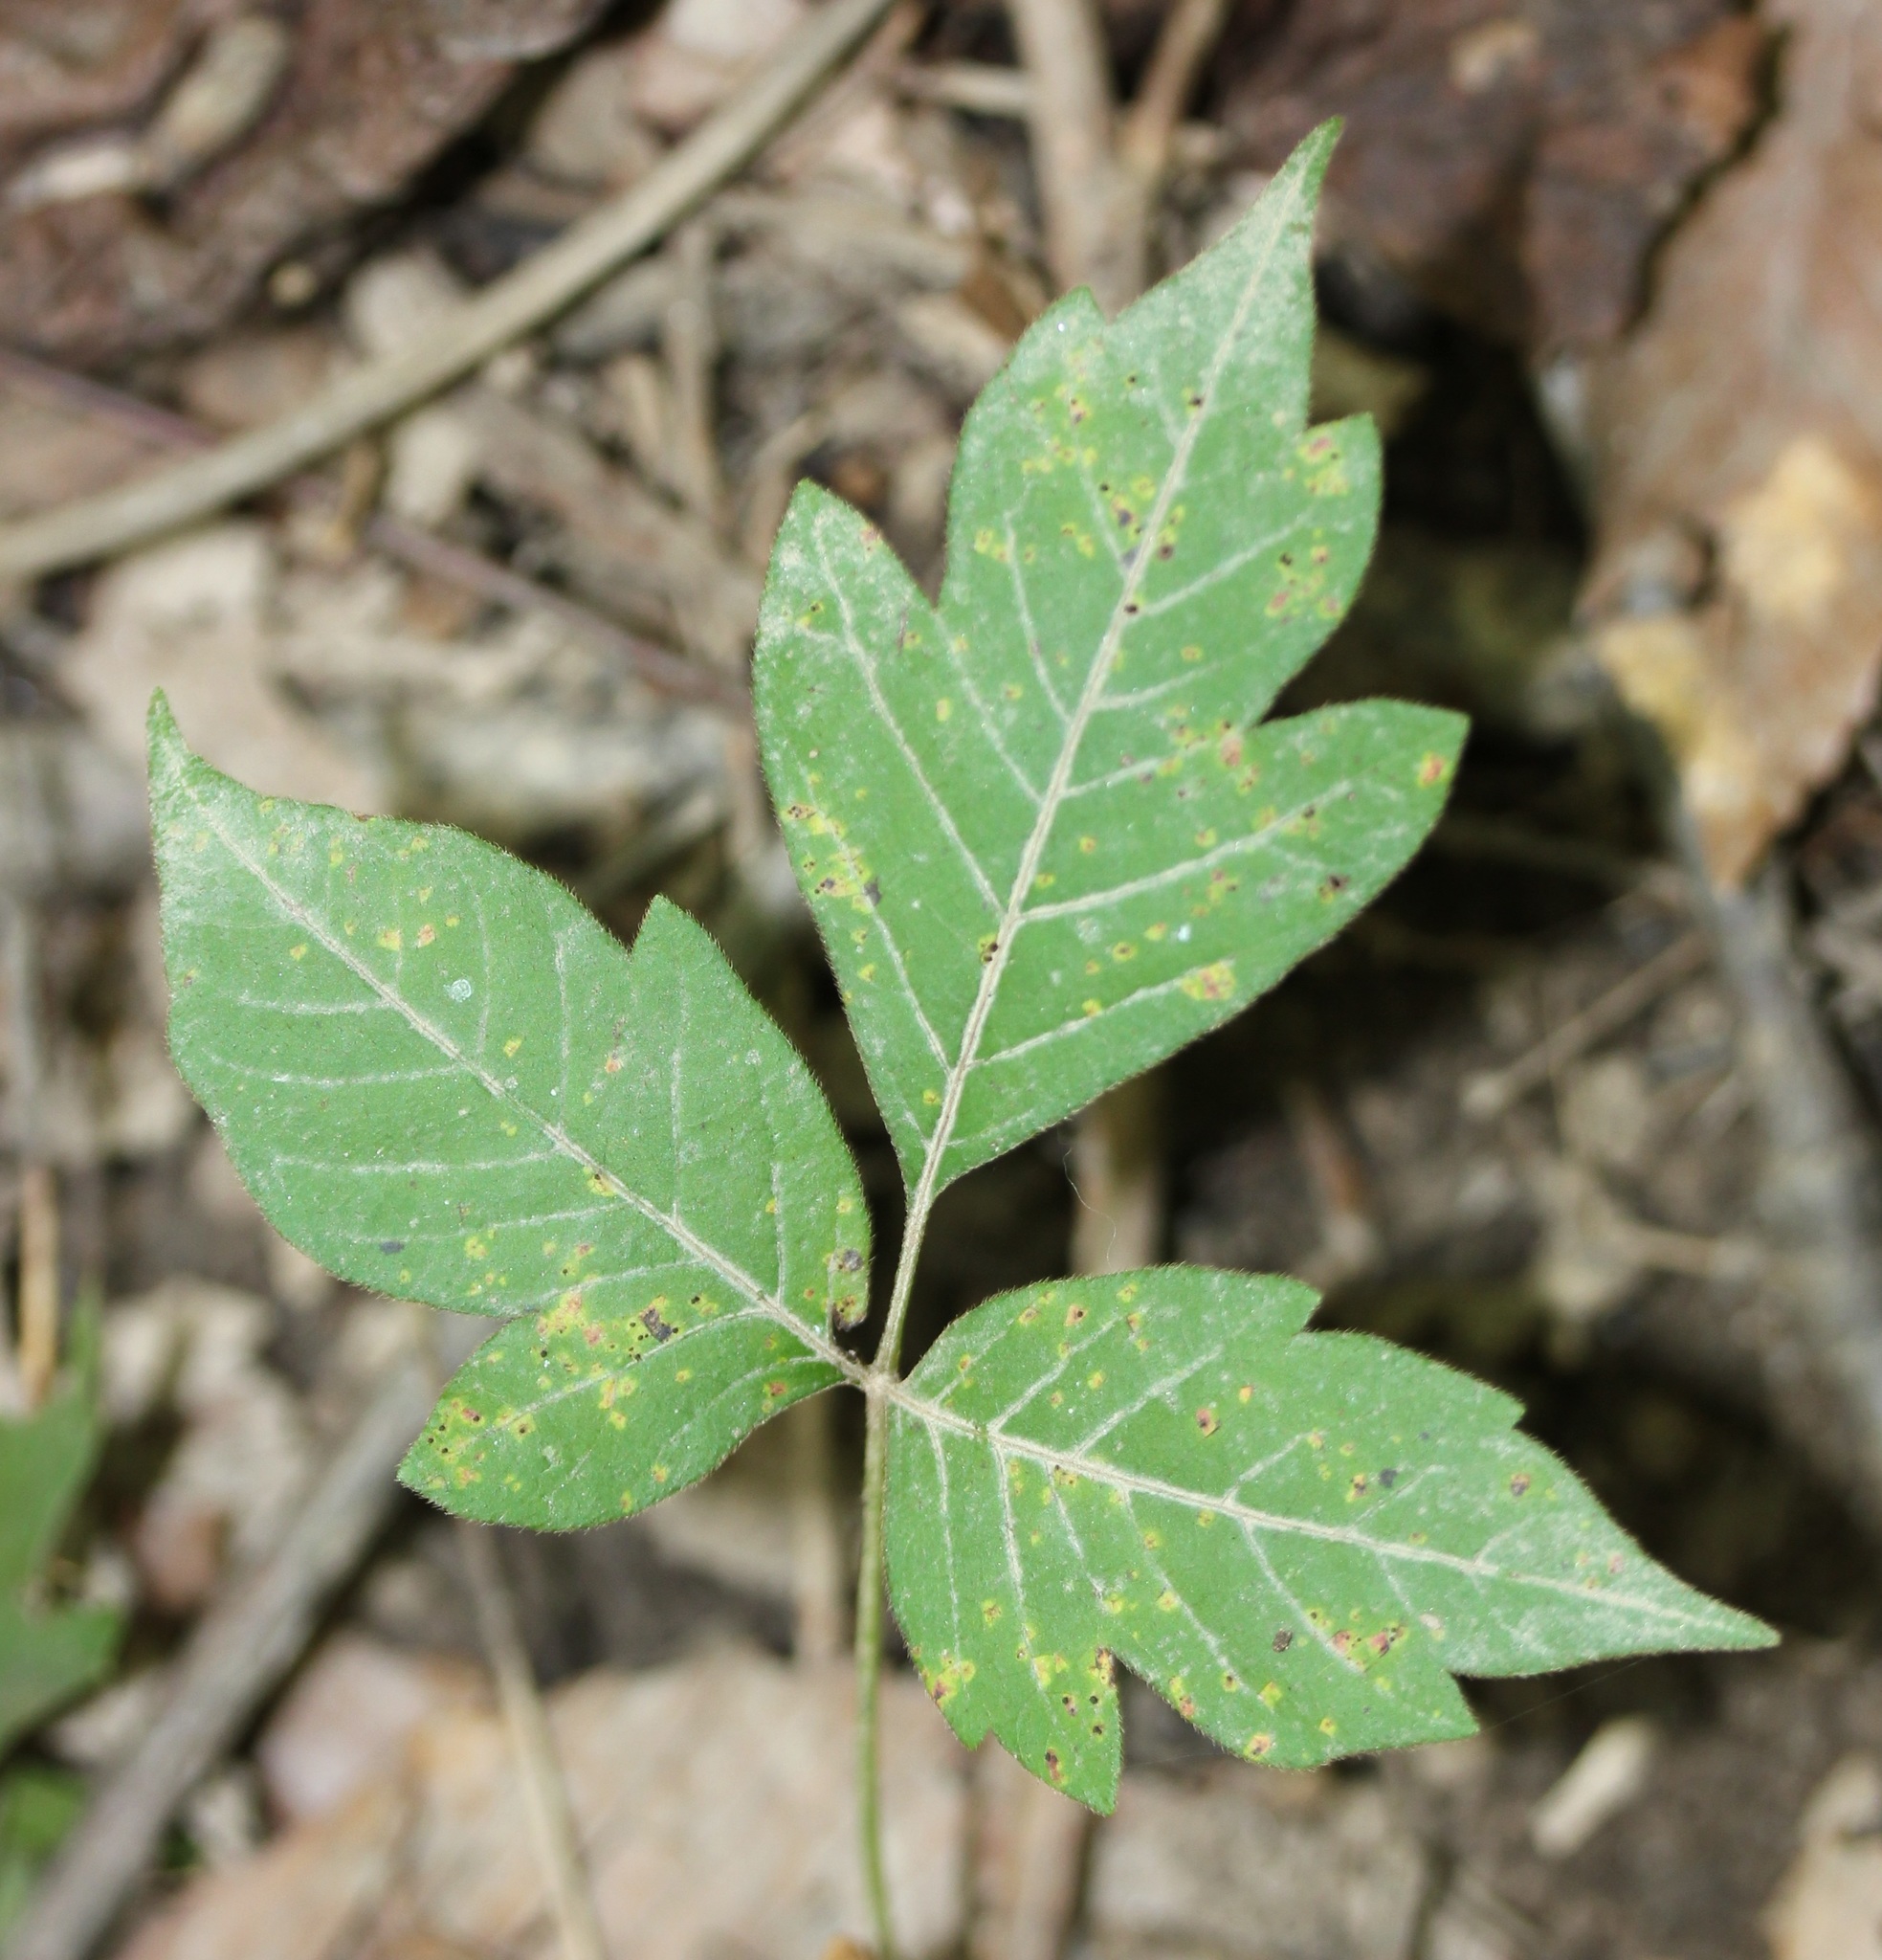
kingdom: Plantae
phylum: Tracheophyta
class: Magnoliopsida
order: Sapindales
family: Anacardiaceae
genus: Toxicodendron
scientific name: Toxicodendron radicans
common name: Poison ivy
